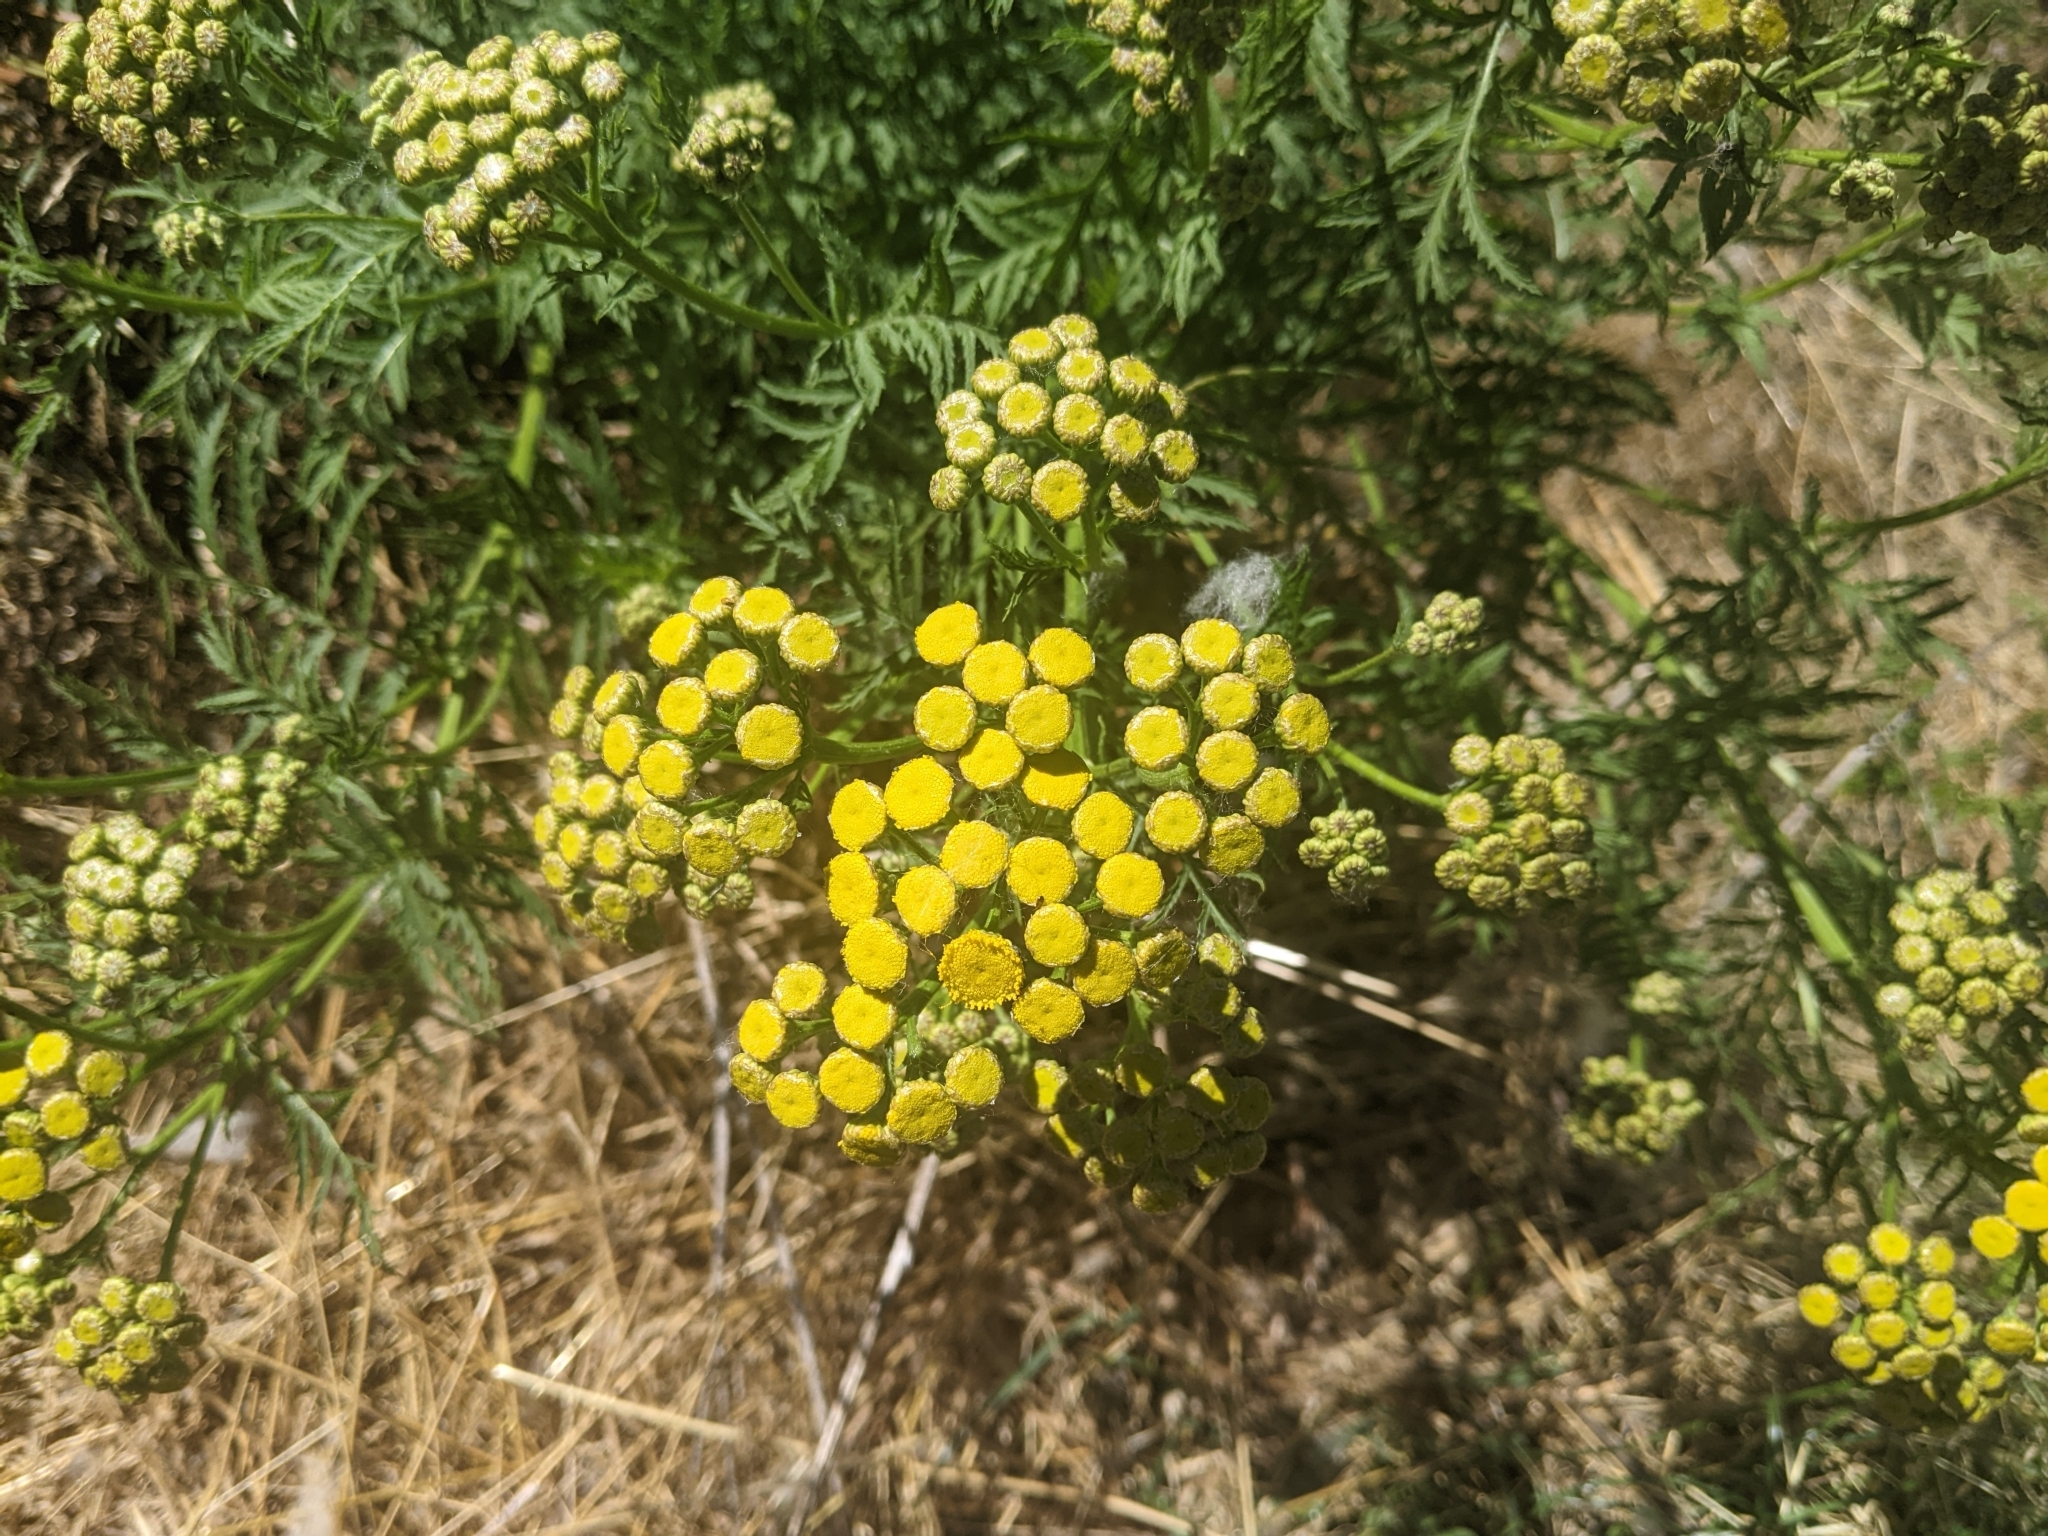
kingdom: Plantae
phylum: Tracheophyta
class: Magnoliopsida
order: Asterales
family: Asteraceae
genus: Tanacetum
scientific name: Tanacetum vulgare
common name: Common tansy
